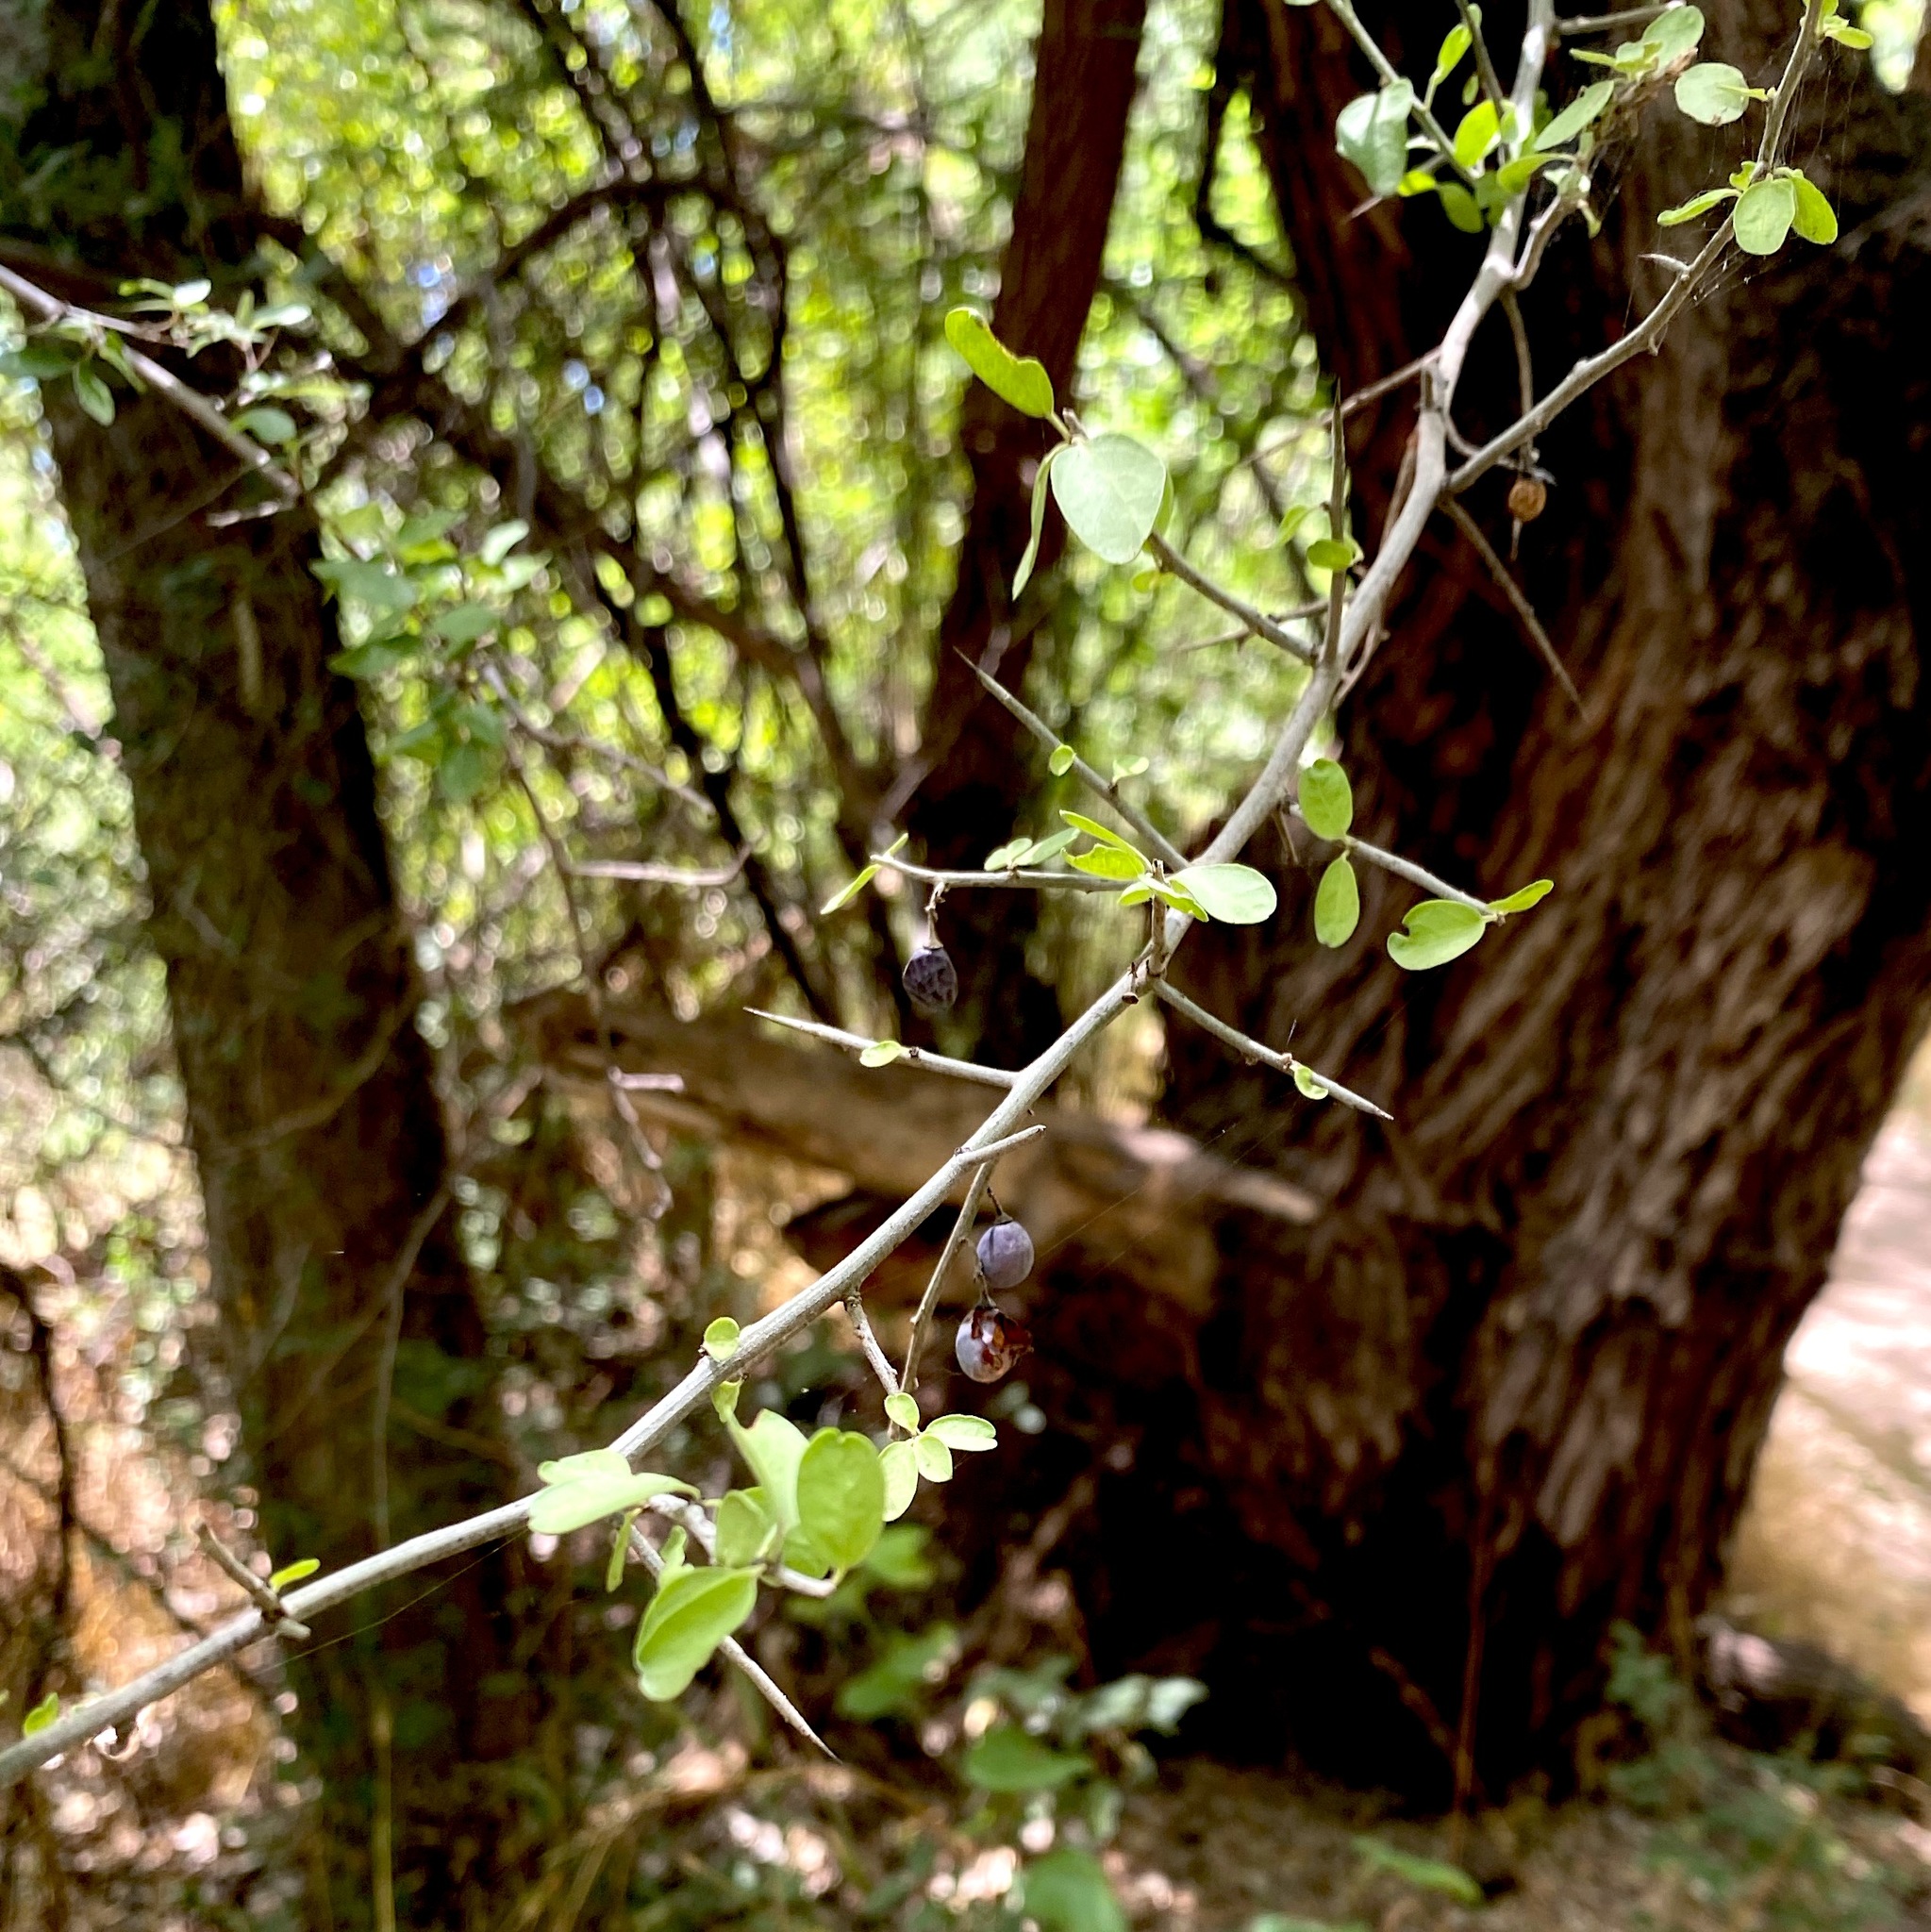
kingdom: Plantae
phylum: Tracheophyta
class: Magnoliopsida
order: Rosales
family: Rhamnaceae
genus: Sarcomphalus
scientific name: Sarcomphalus obtusifolius
